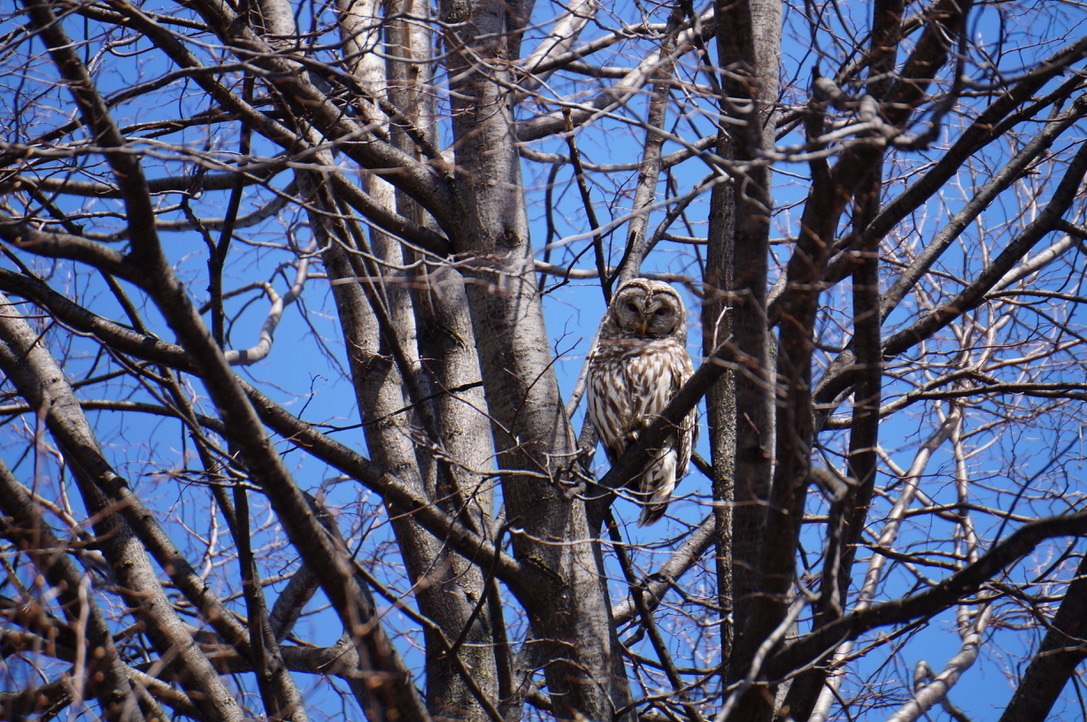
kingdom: Animalia
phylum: Chordata
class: Aves
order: Strigiformes
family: Strigidae
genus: Strix
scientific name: Strix varia
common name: Barred owl
